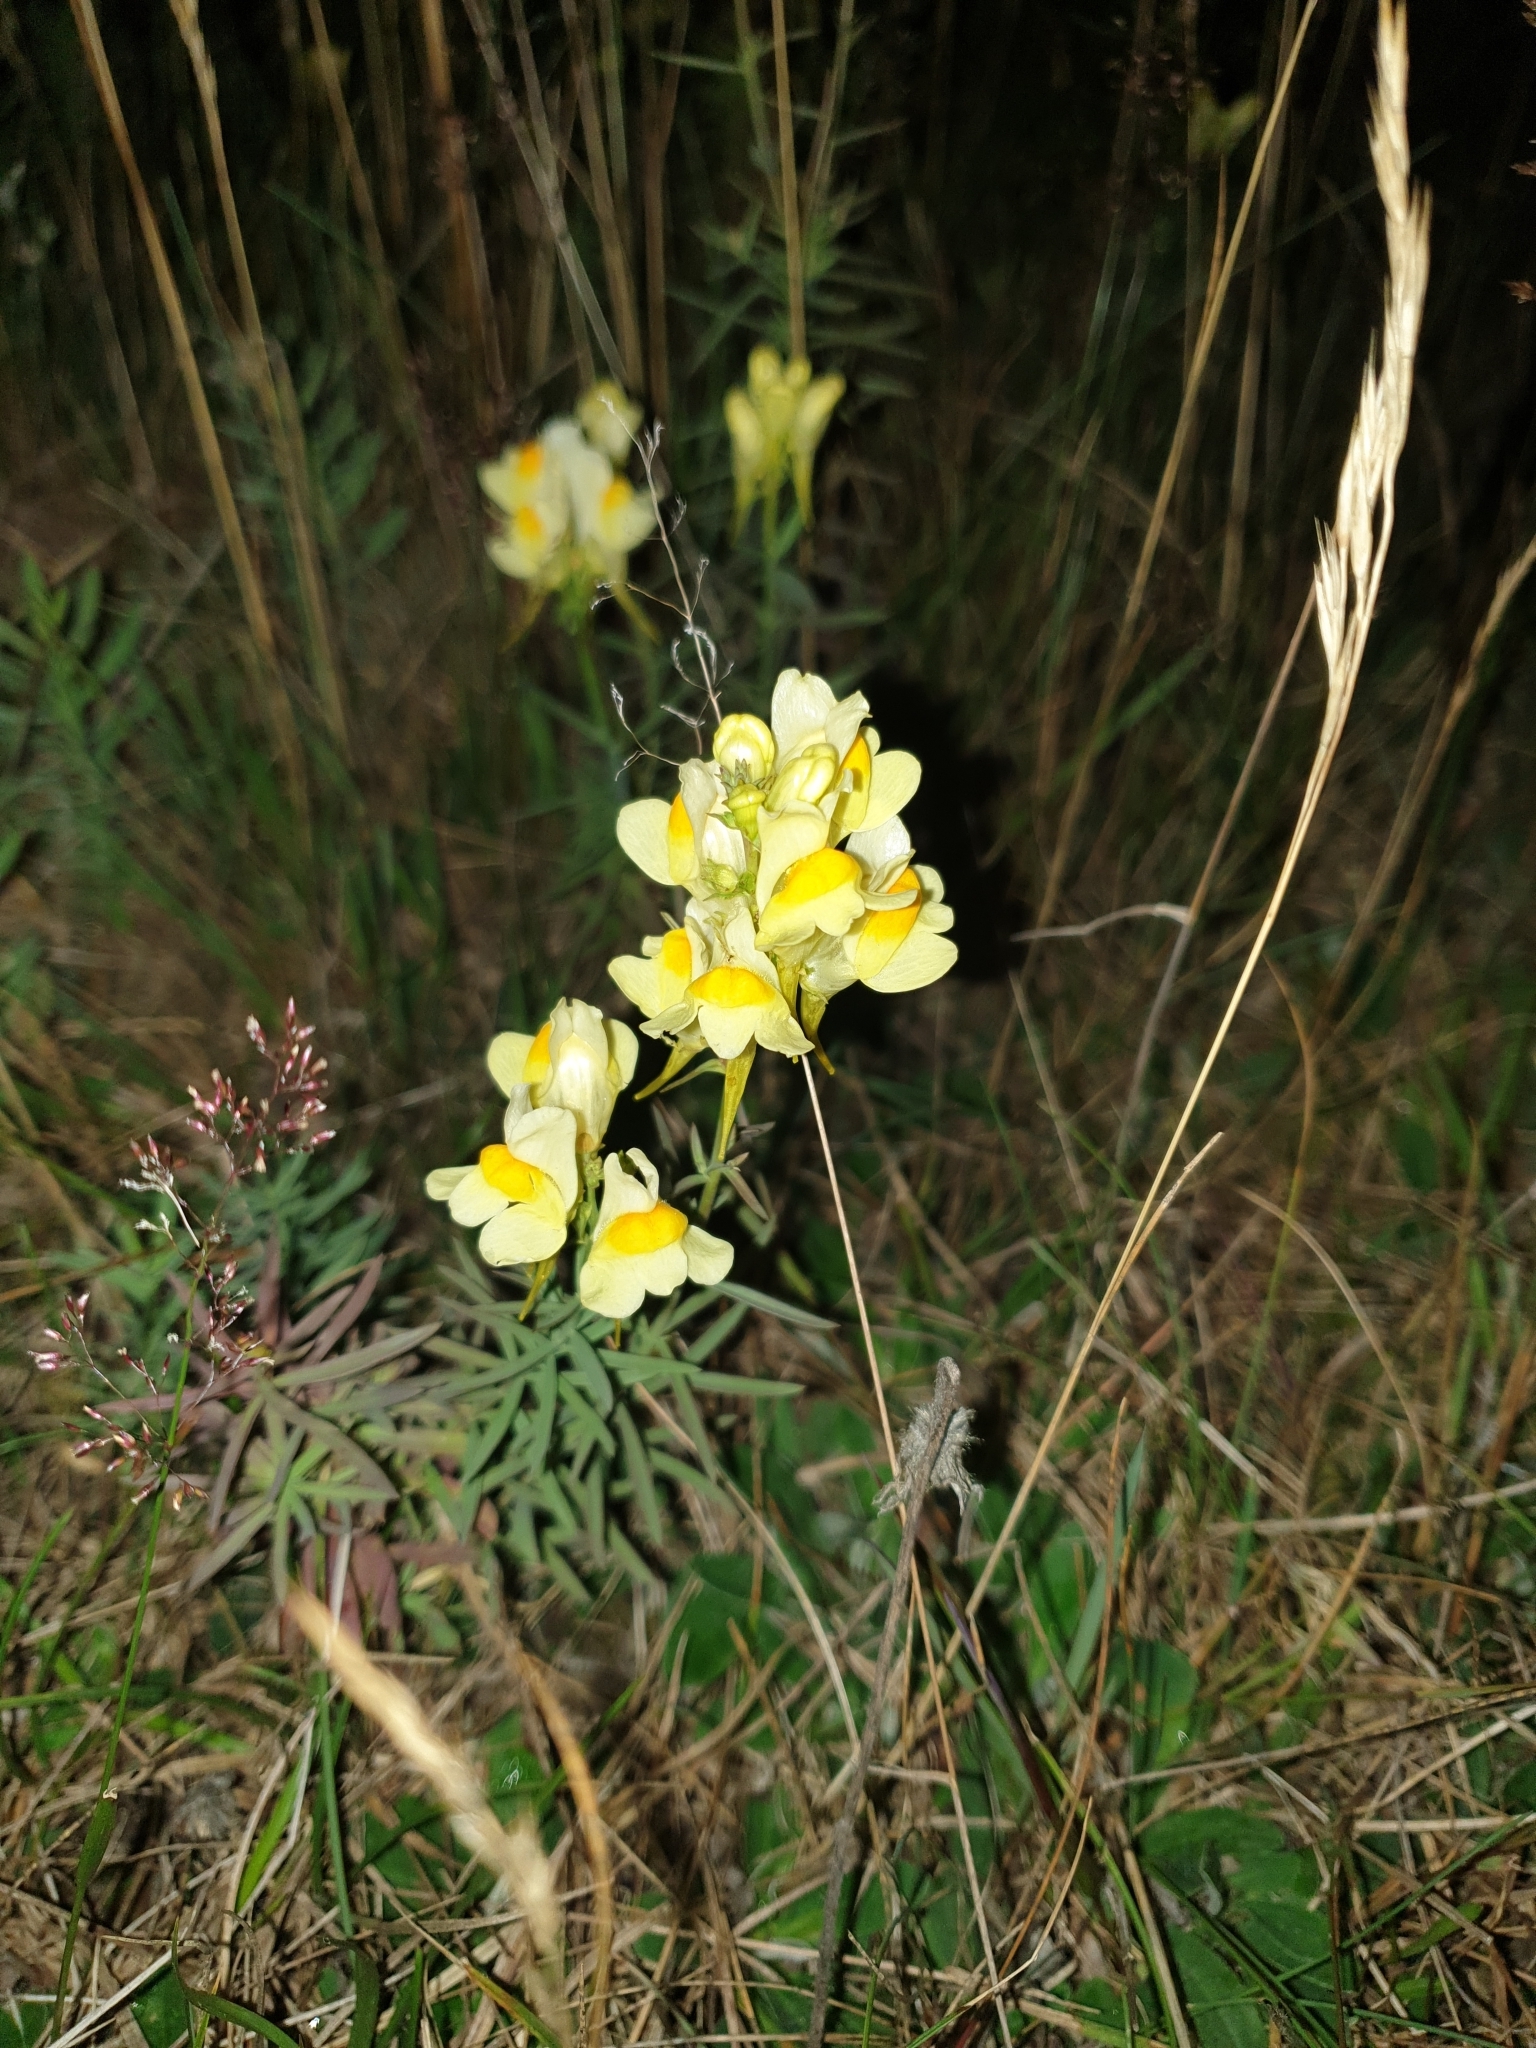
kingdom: Plantae
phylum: Tracheophyta
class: Magnoliopsida
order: Lamiales
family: Plantaginaceae
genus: Linaria
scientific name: Linaria vulgaris
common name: Butter and eggs
